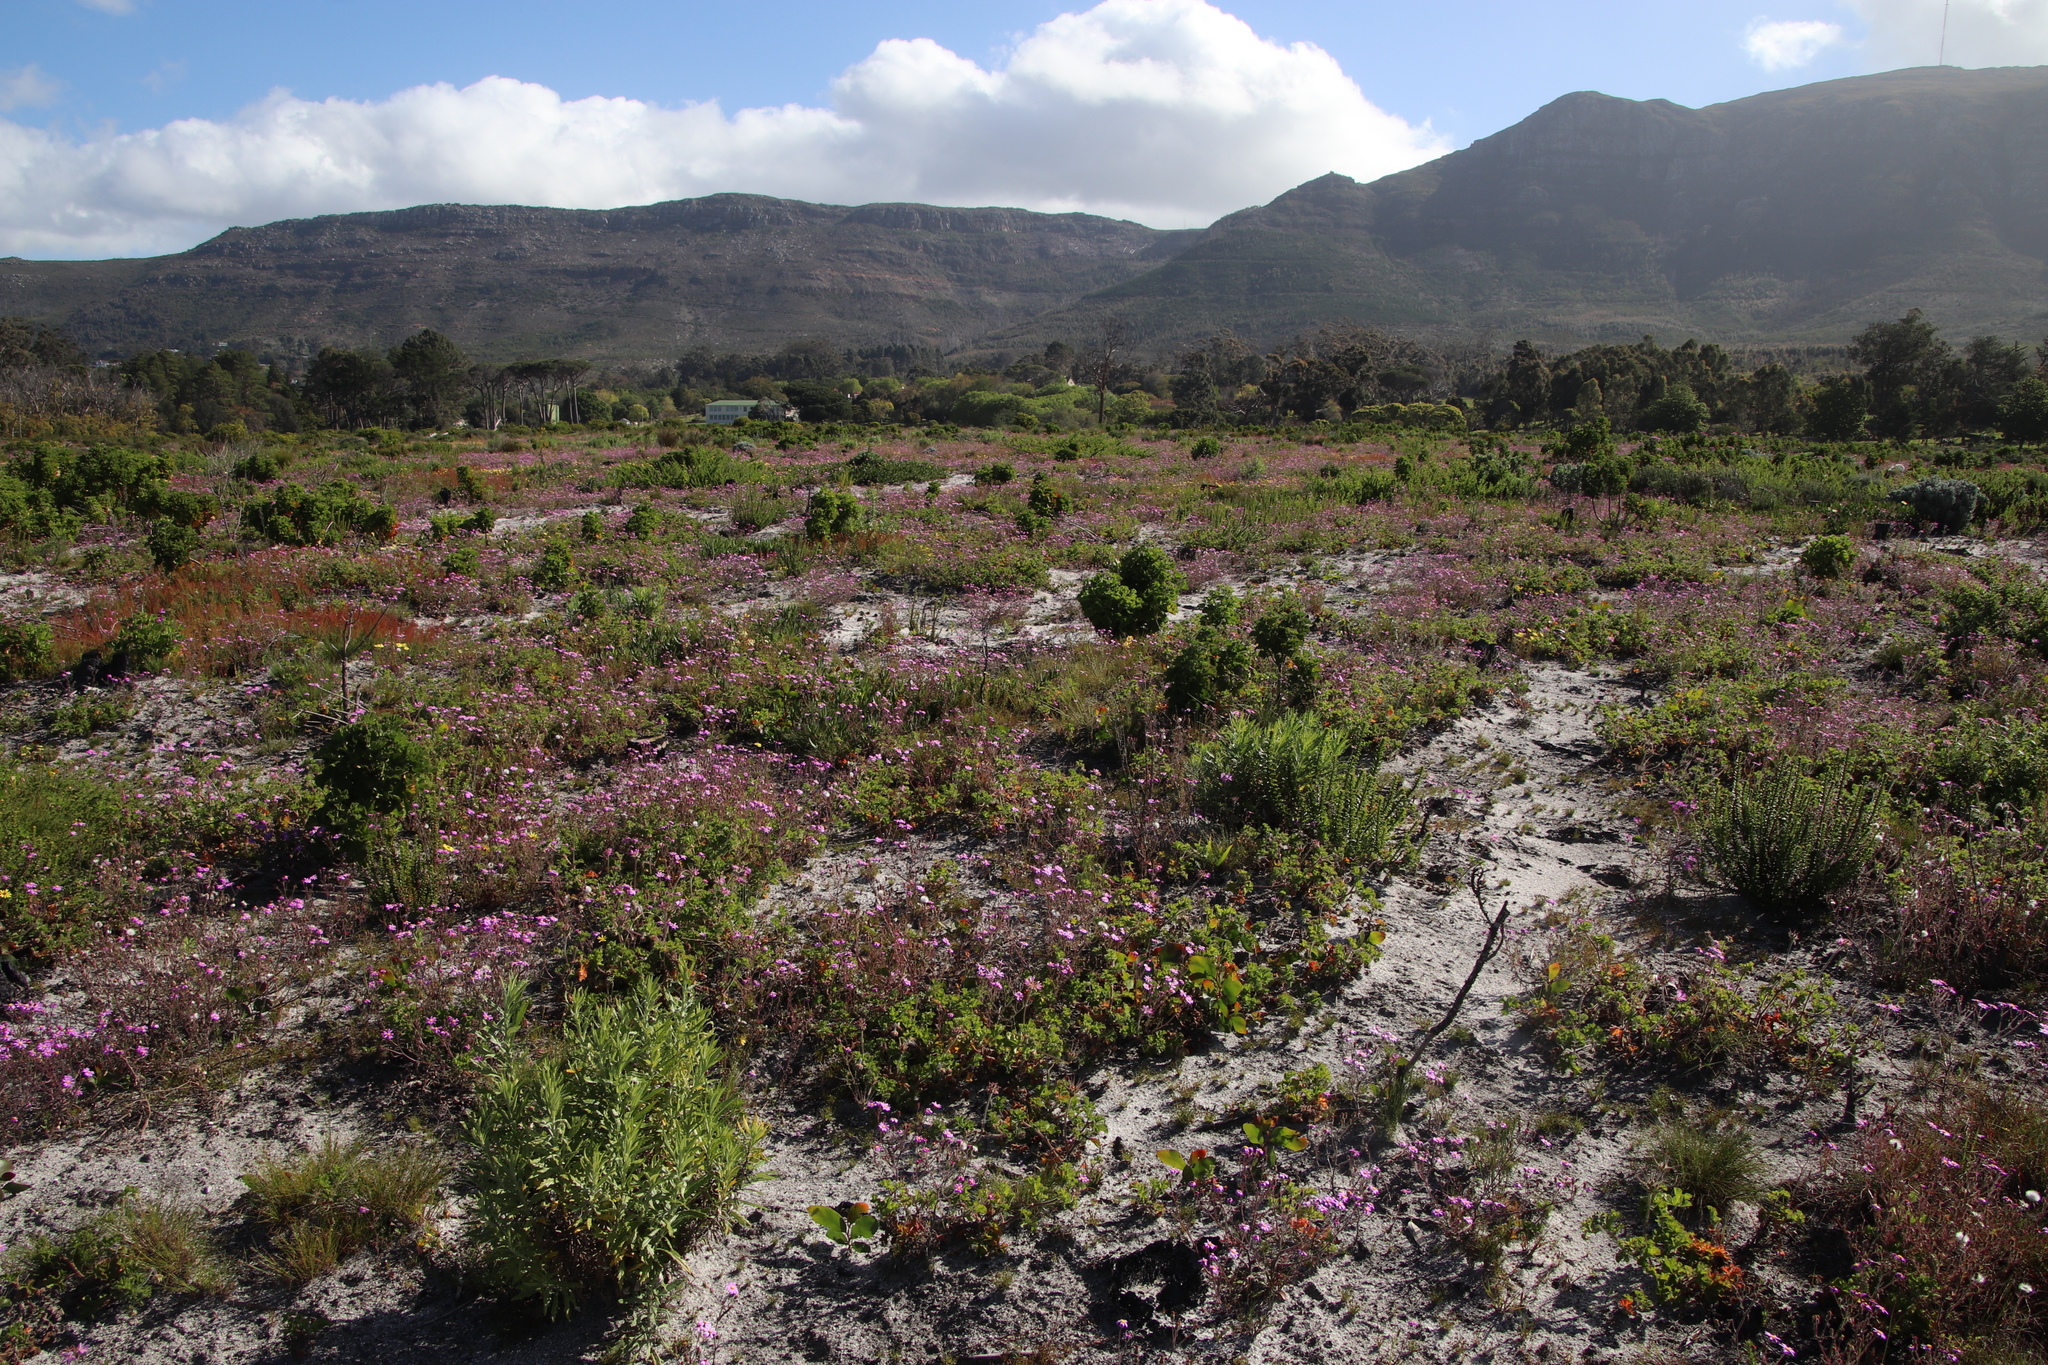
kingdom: Plantae
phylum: Tracheophyta
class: Magnoliopsida
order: Asterales
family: Asteraceae
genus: Senecio
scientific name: Senecio arenarius
